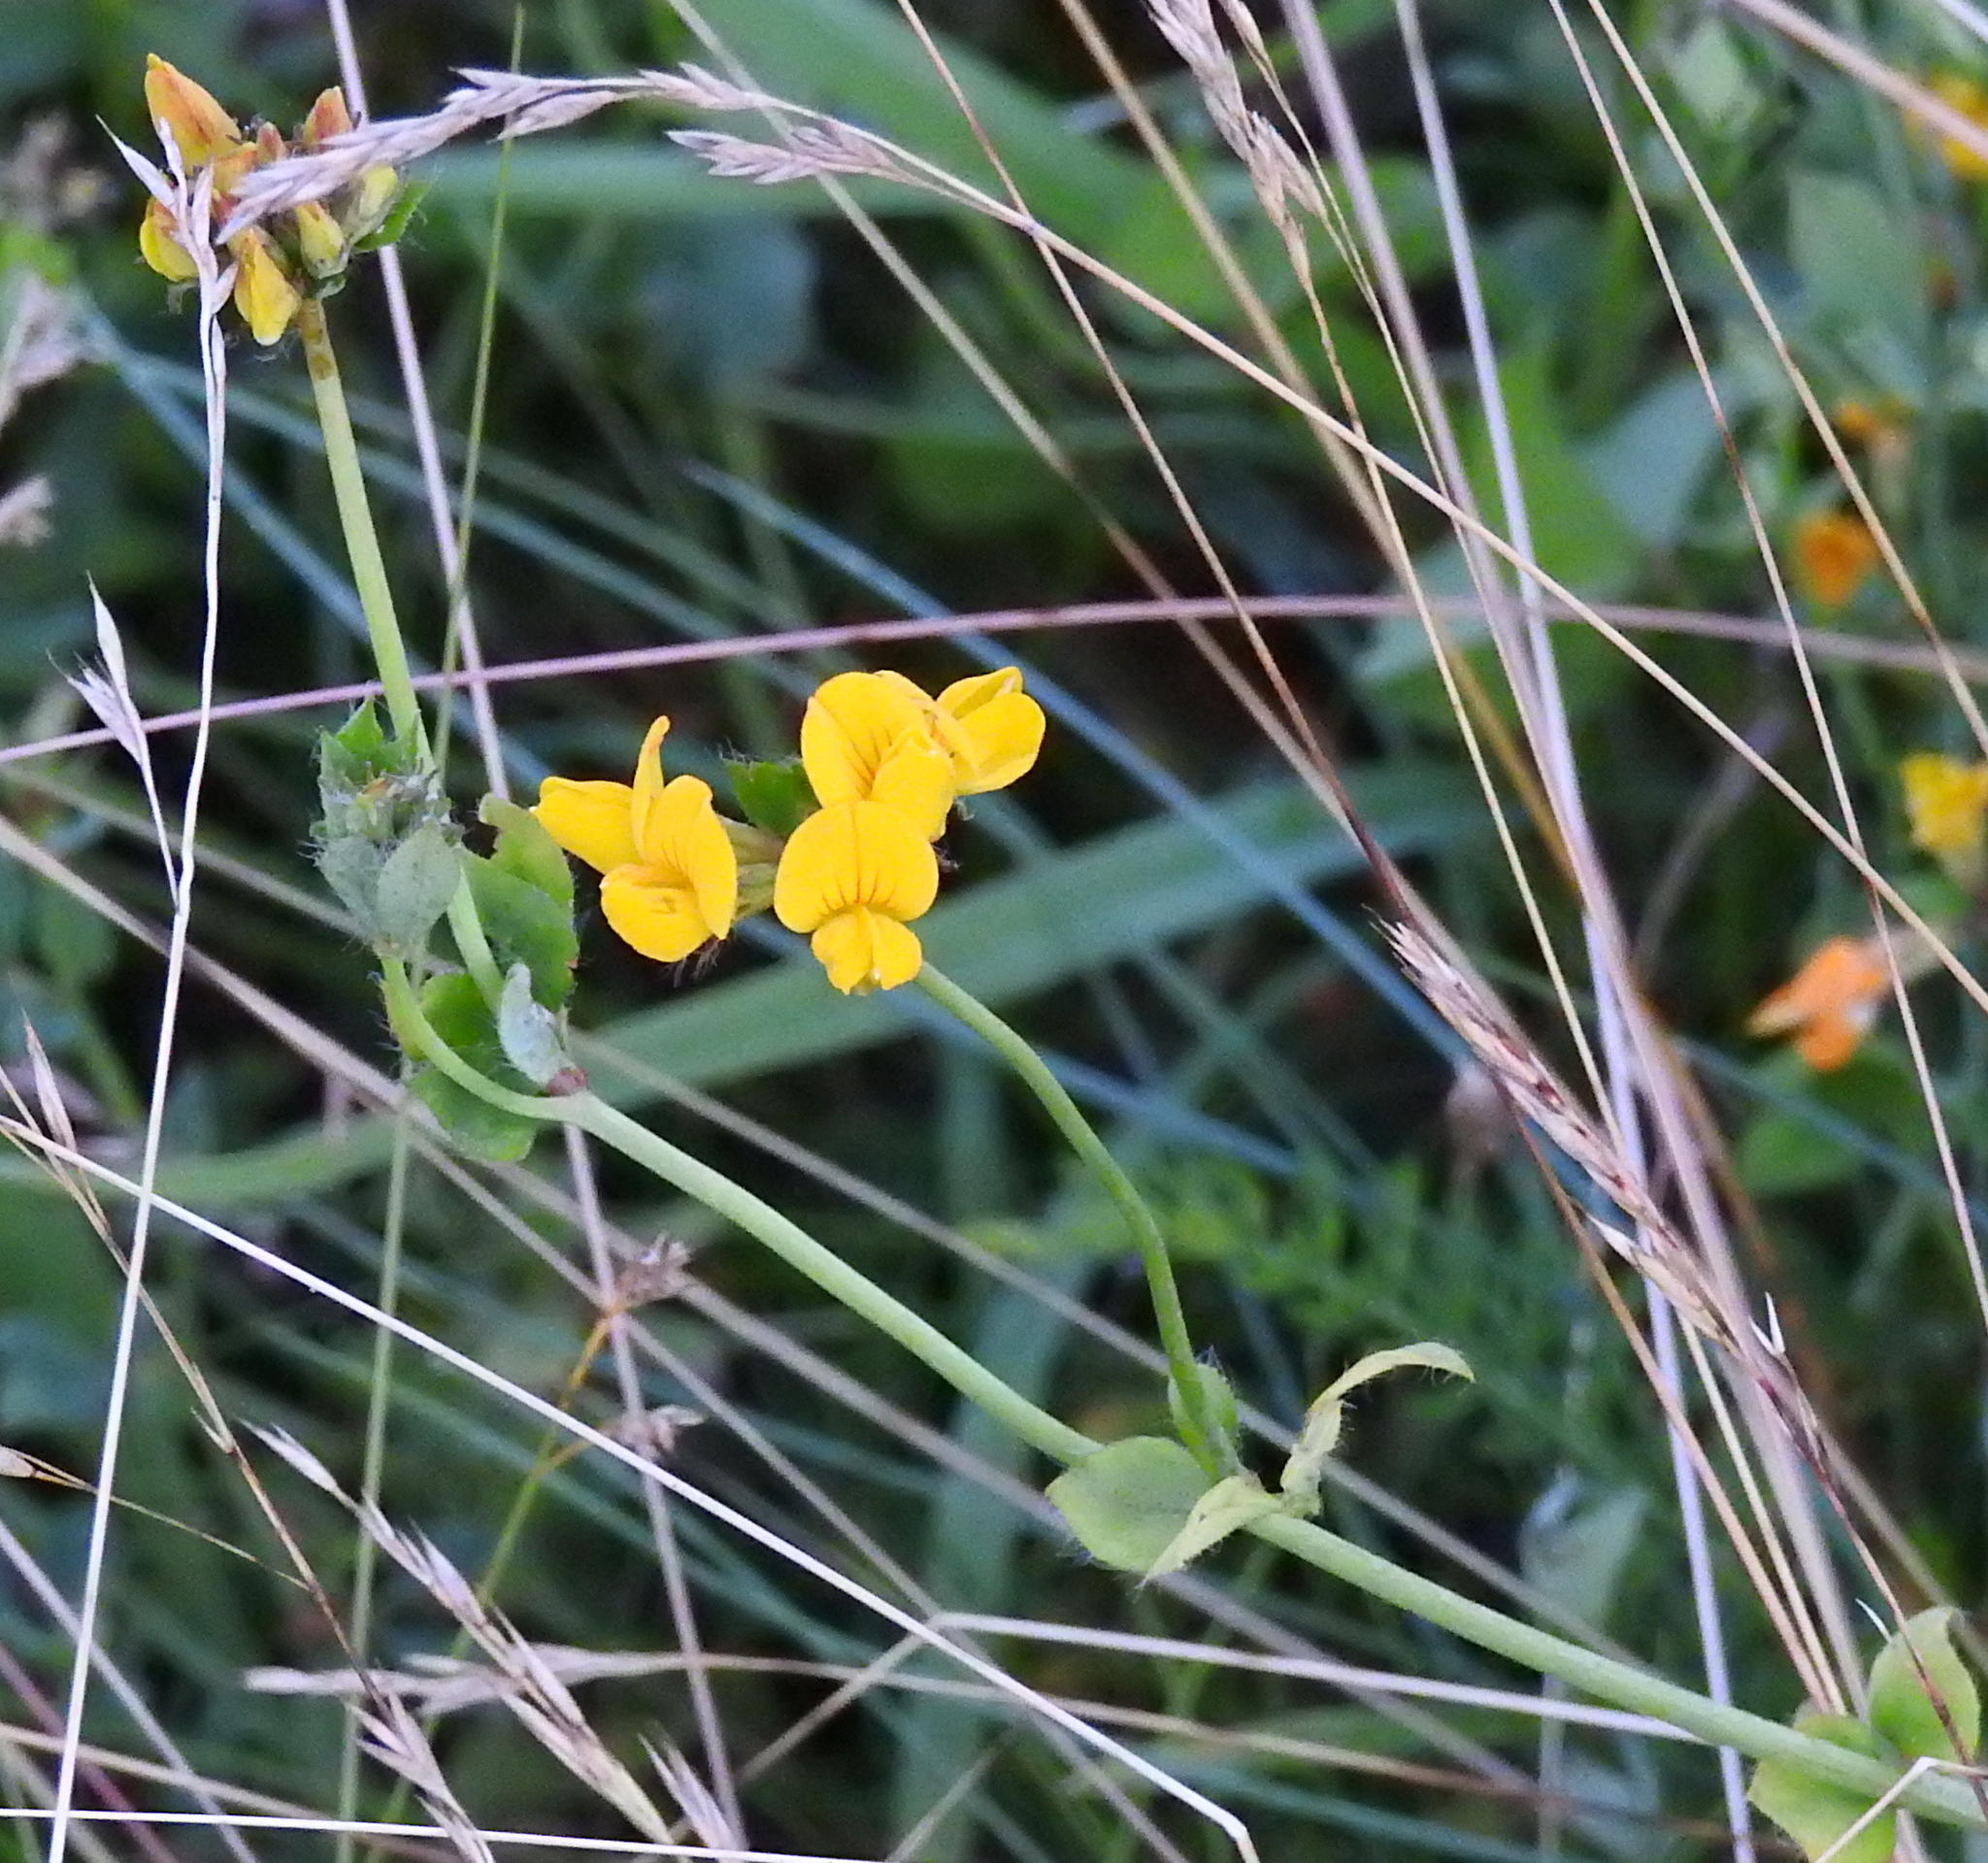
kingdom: Plantae
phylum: Tracheophyta
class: Magnoliopsida
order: Fabales
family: Fabaceae
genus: Lotus
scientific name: Lotus corniculatus
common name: Common bird's-foot-trefoil
